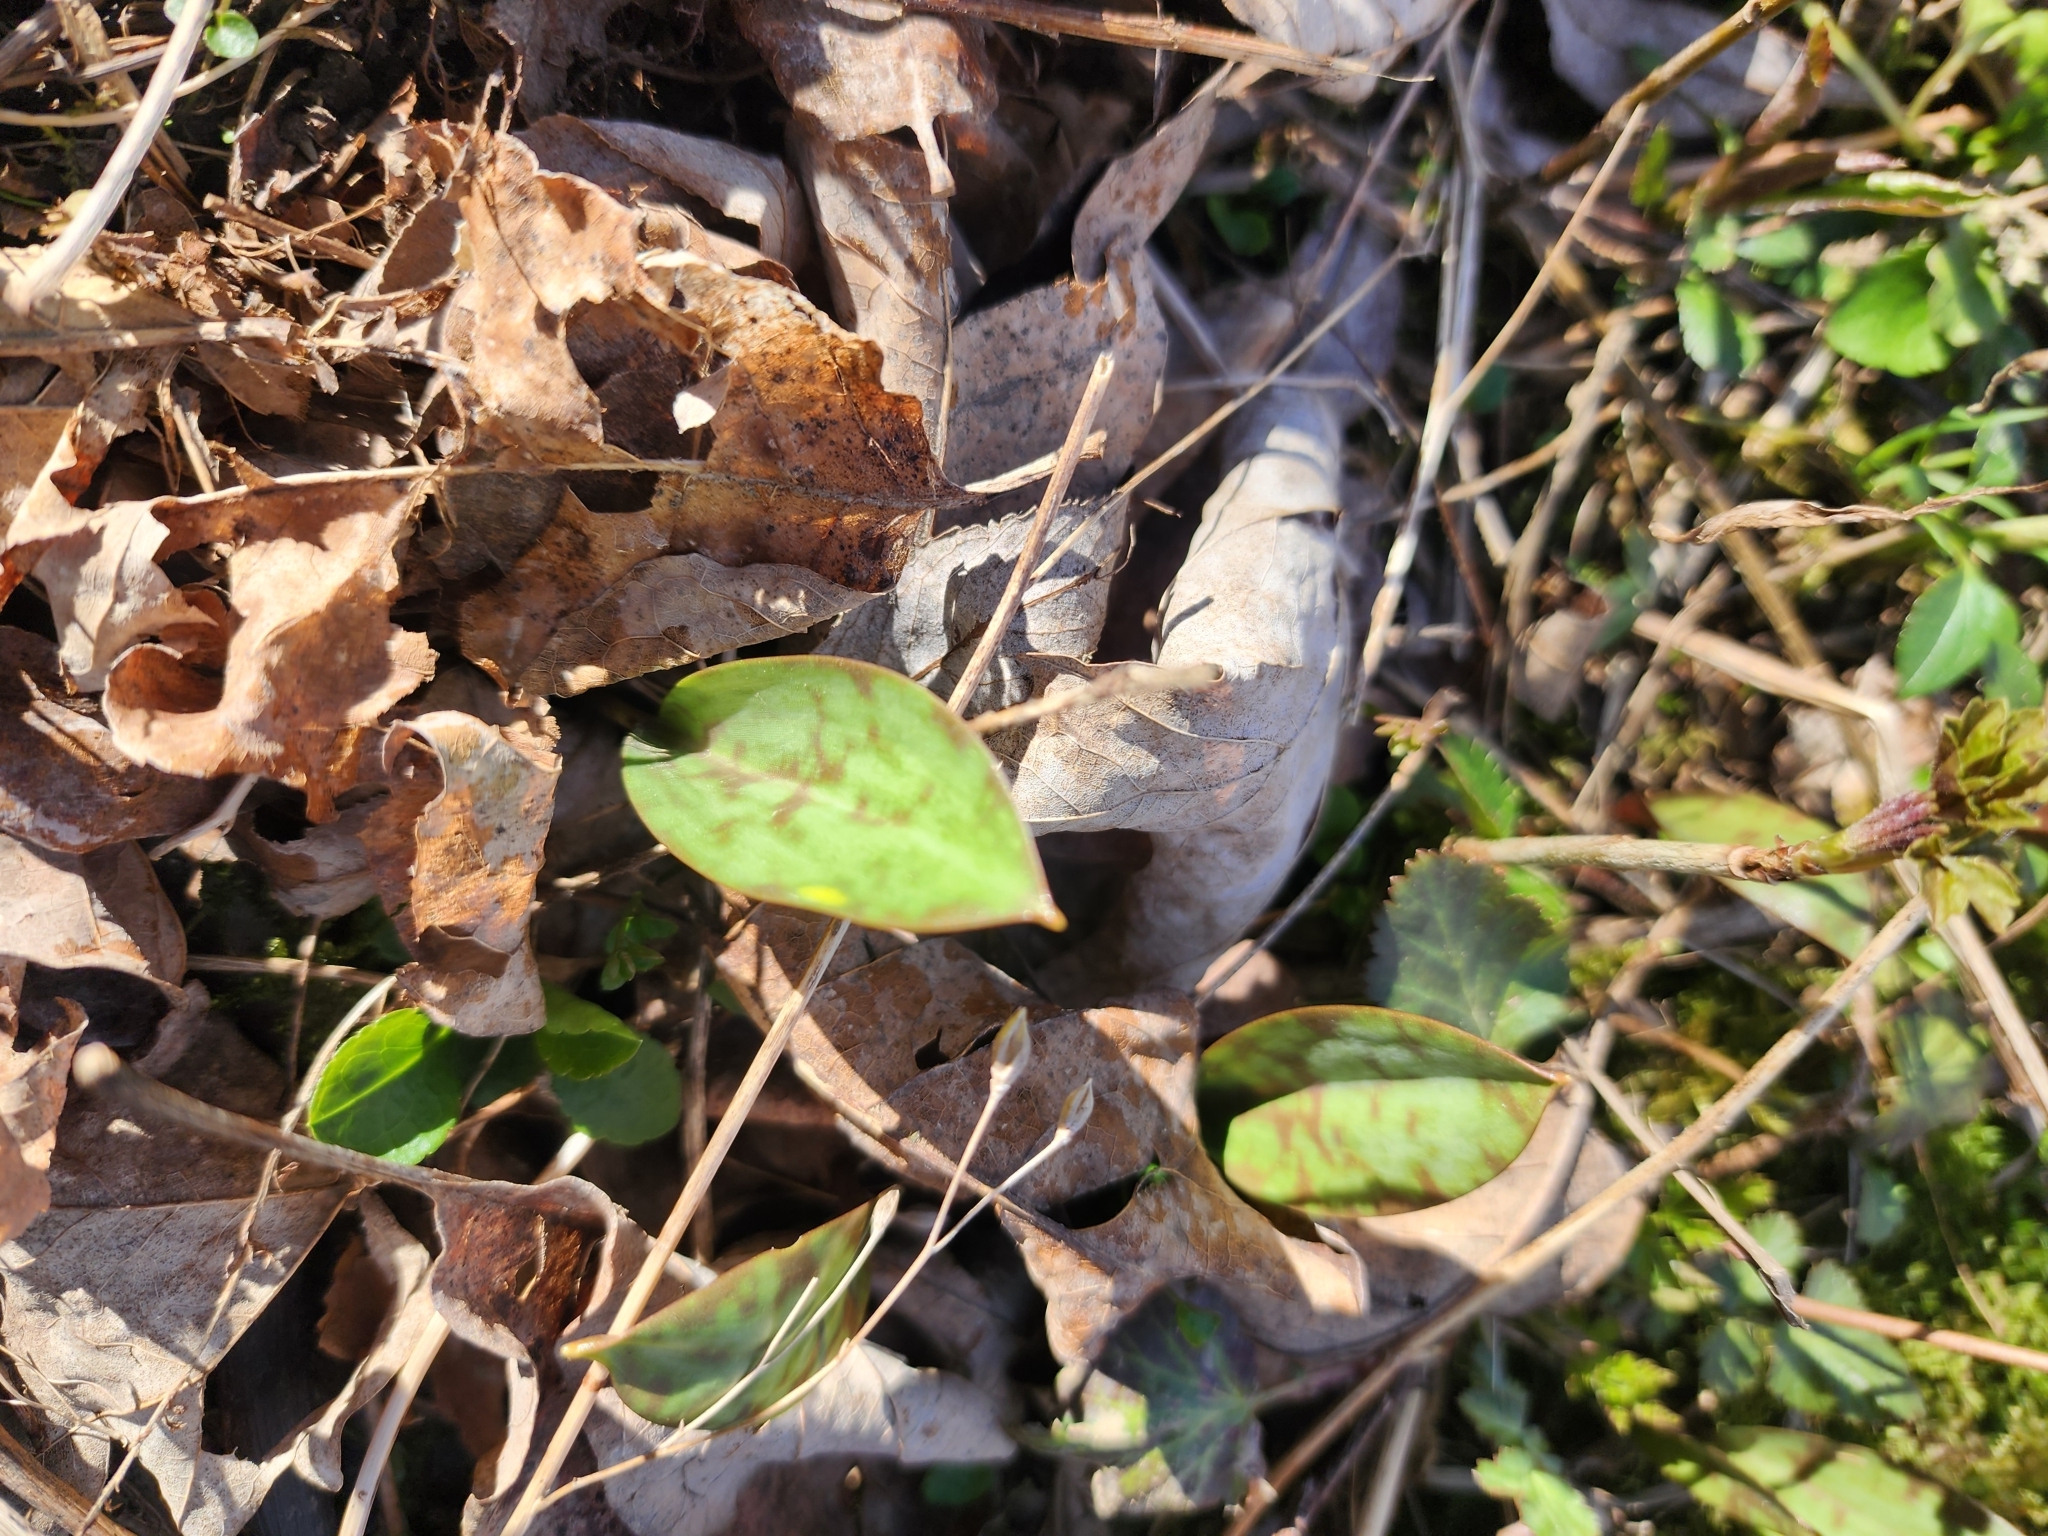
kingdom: Plantae
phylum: Tracheophyta
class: Liliopsida
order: Liliales
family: Liliaceae
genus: Erythronium
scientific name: Erythronium americanum
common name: Yellow adder's-tongue
